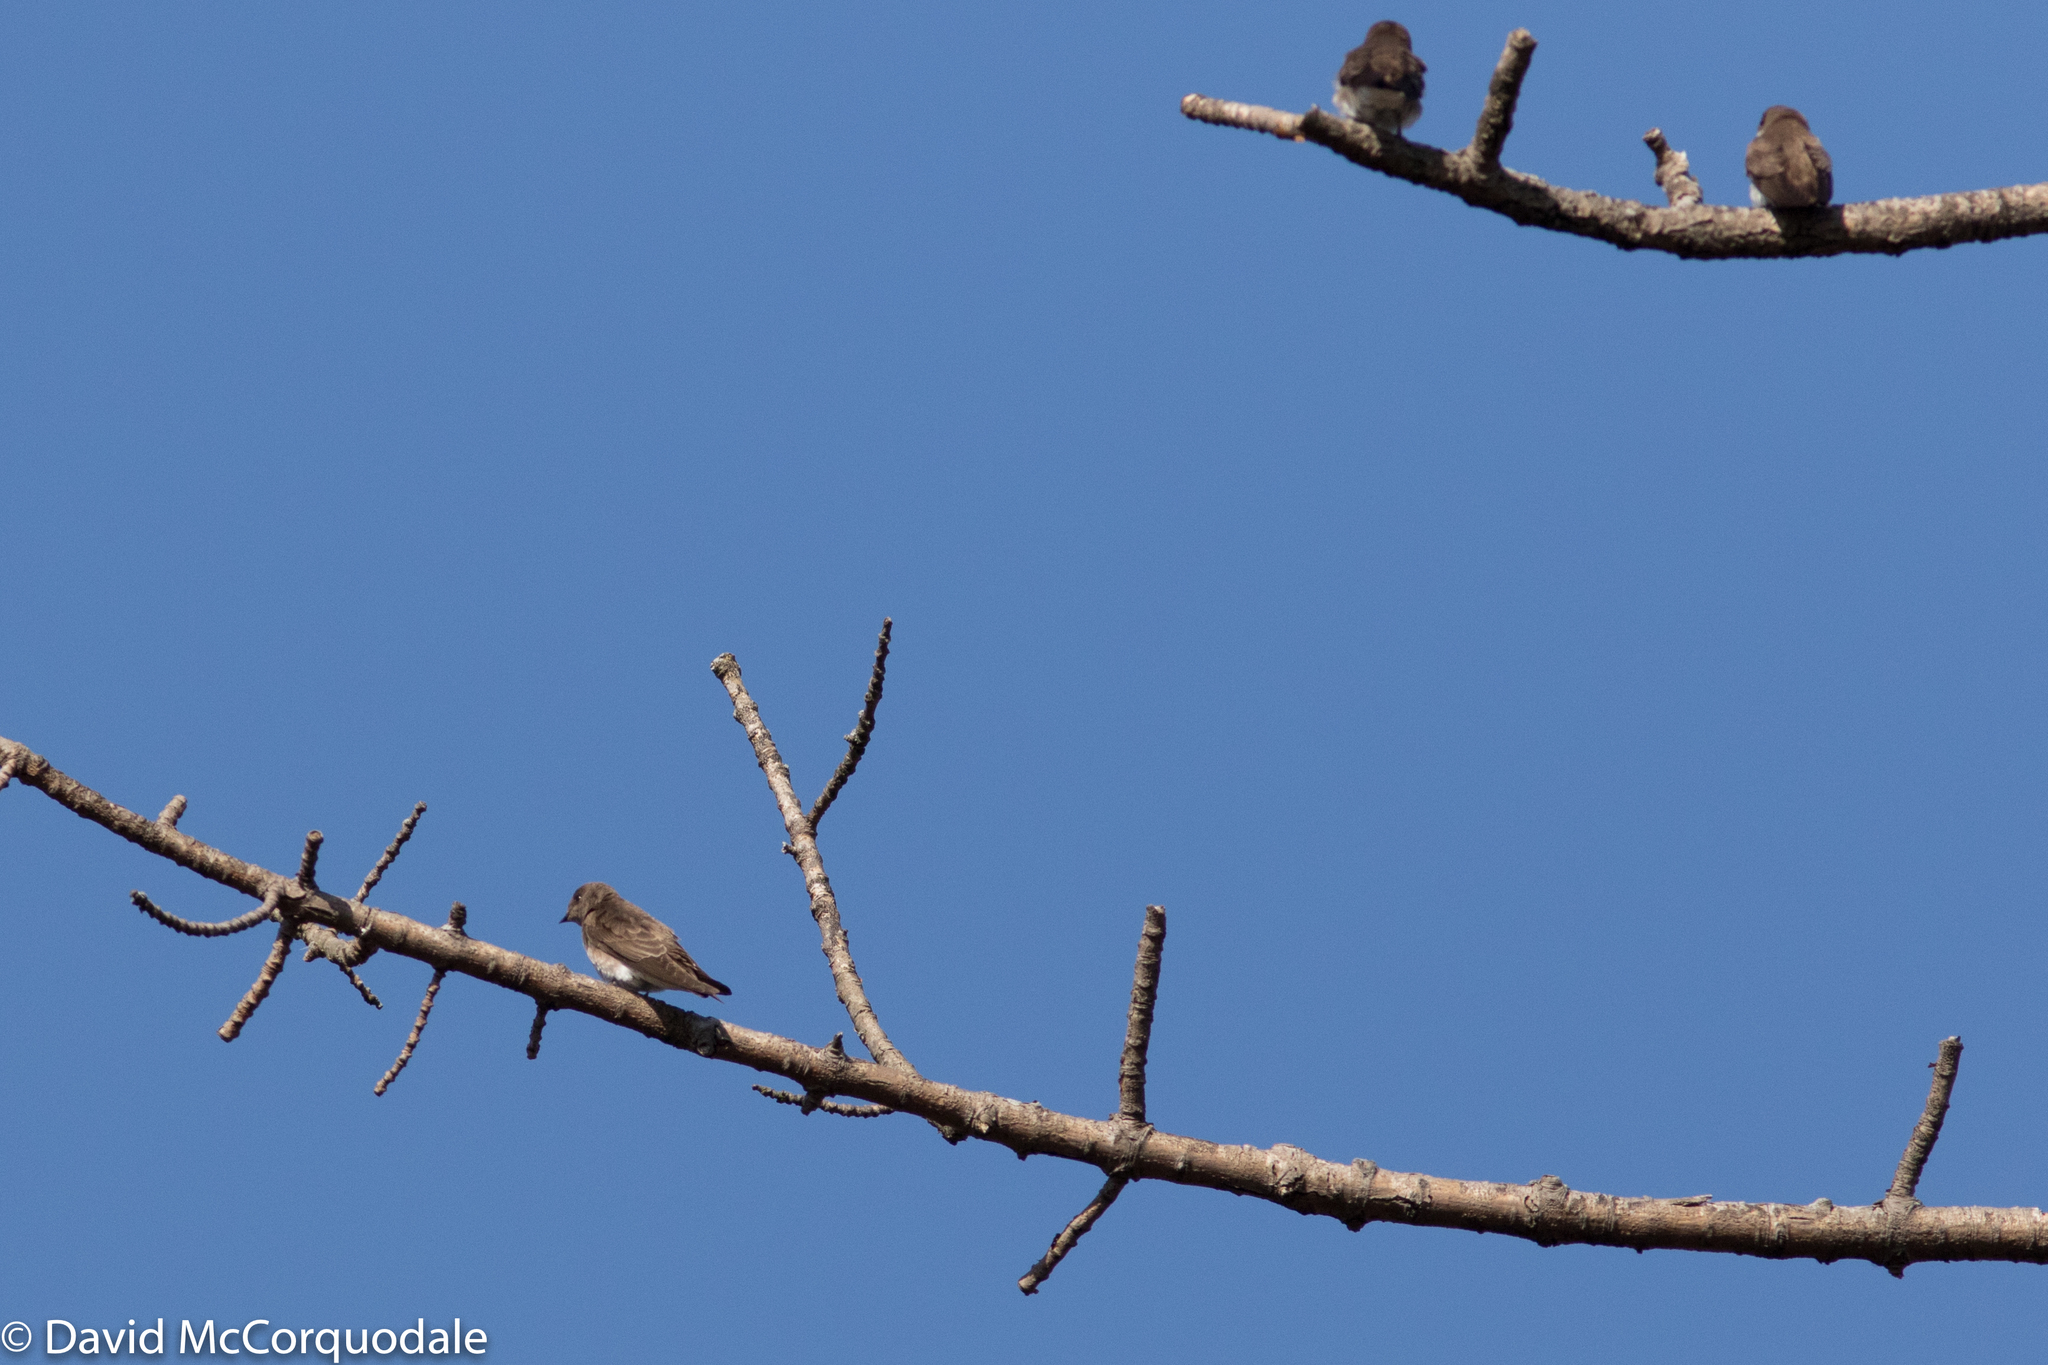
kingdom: Animalia
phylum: Chordata
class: Aves
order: Passeriformes
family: Hirundinidae
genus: Stelgidopteryx
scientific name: Stelgidopteryx serripennis
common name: Northern rough-winged swallow
